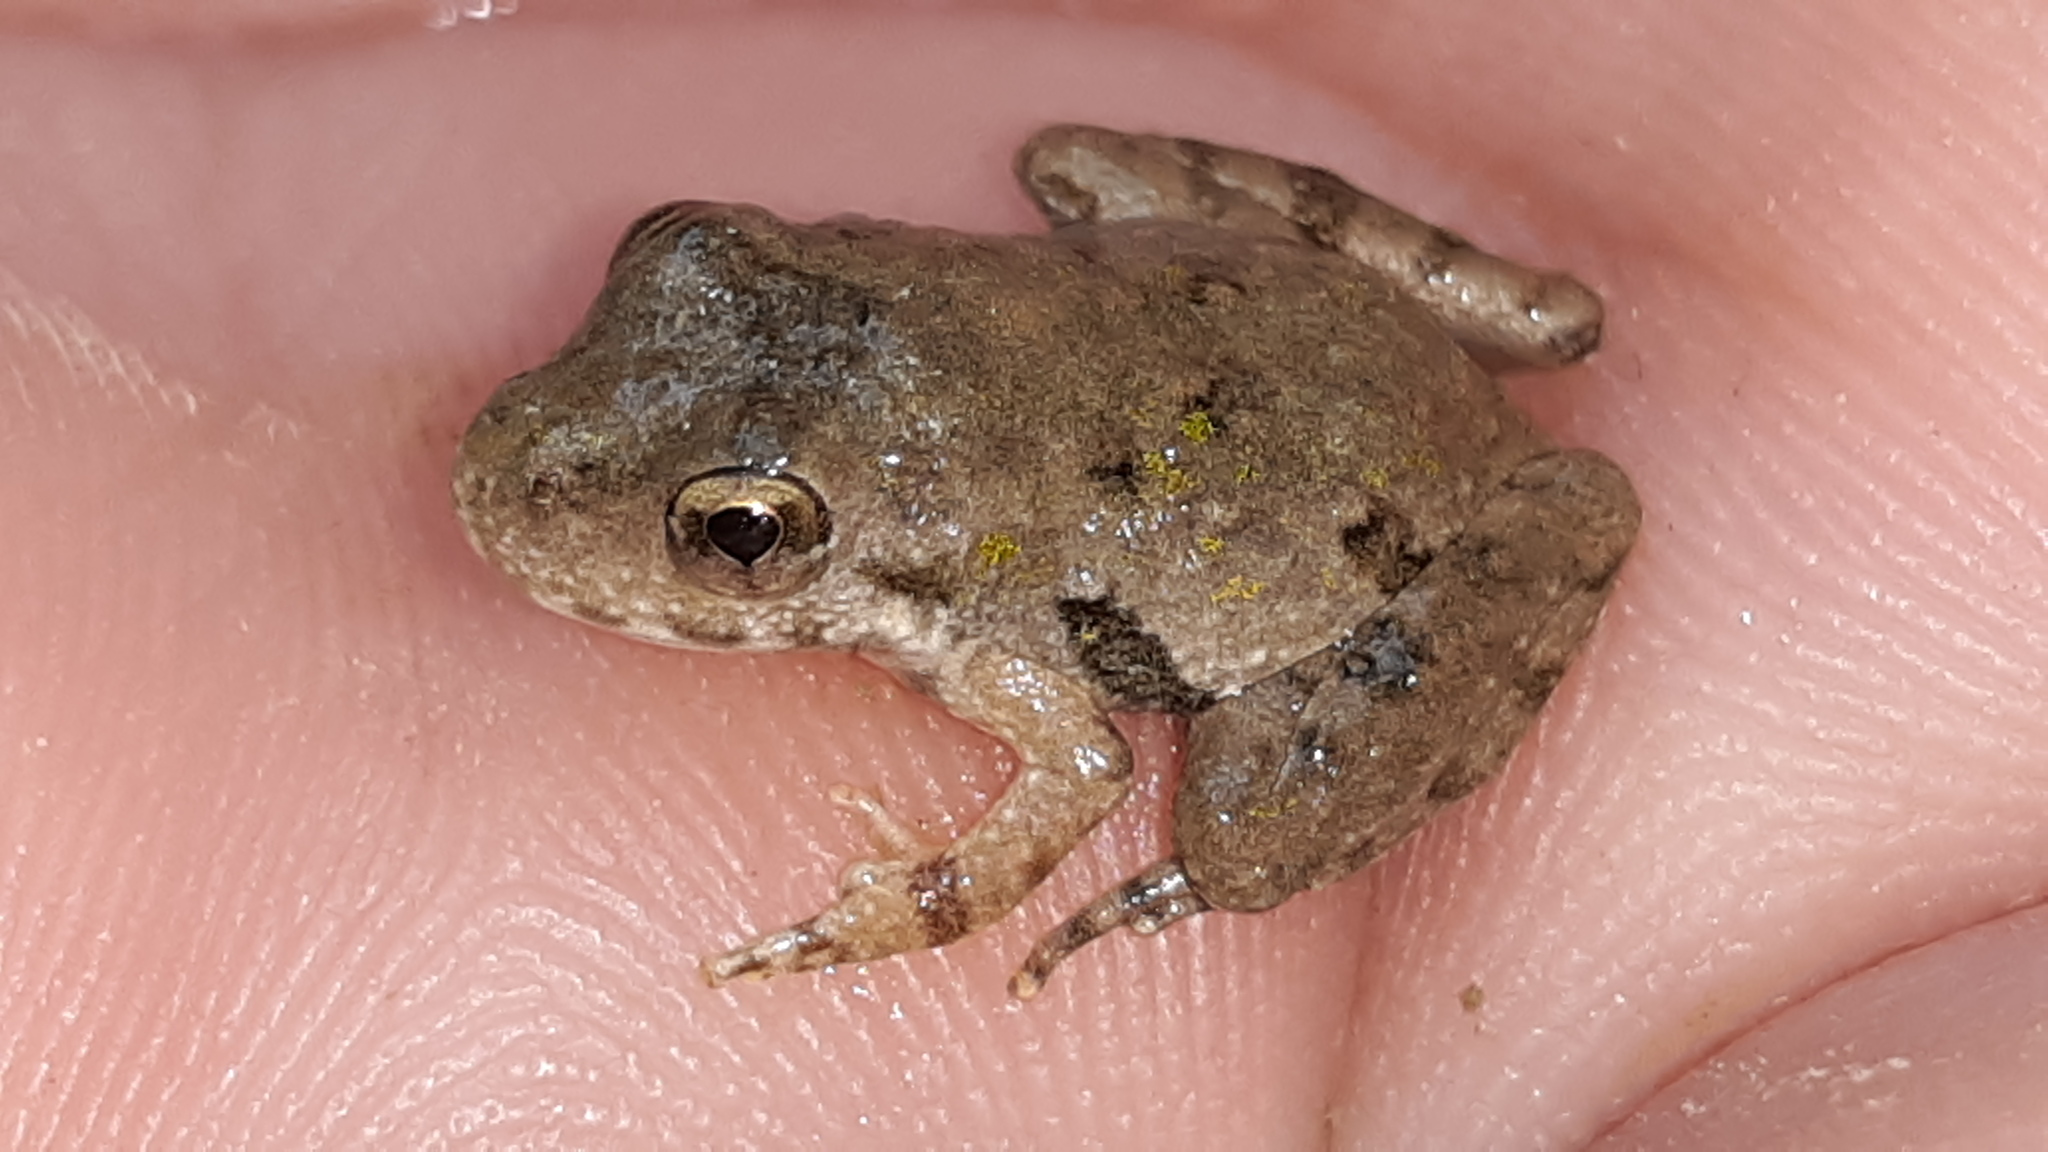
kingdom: Animalia
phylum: Chordata
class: Amphibia
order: Anura
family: Hylidae
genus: Acris
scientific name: Acris blanchardi
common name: Blanchard's cricket frog
